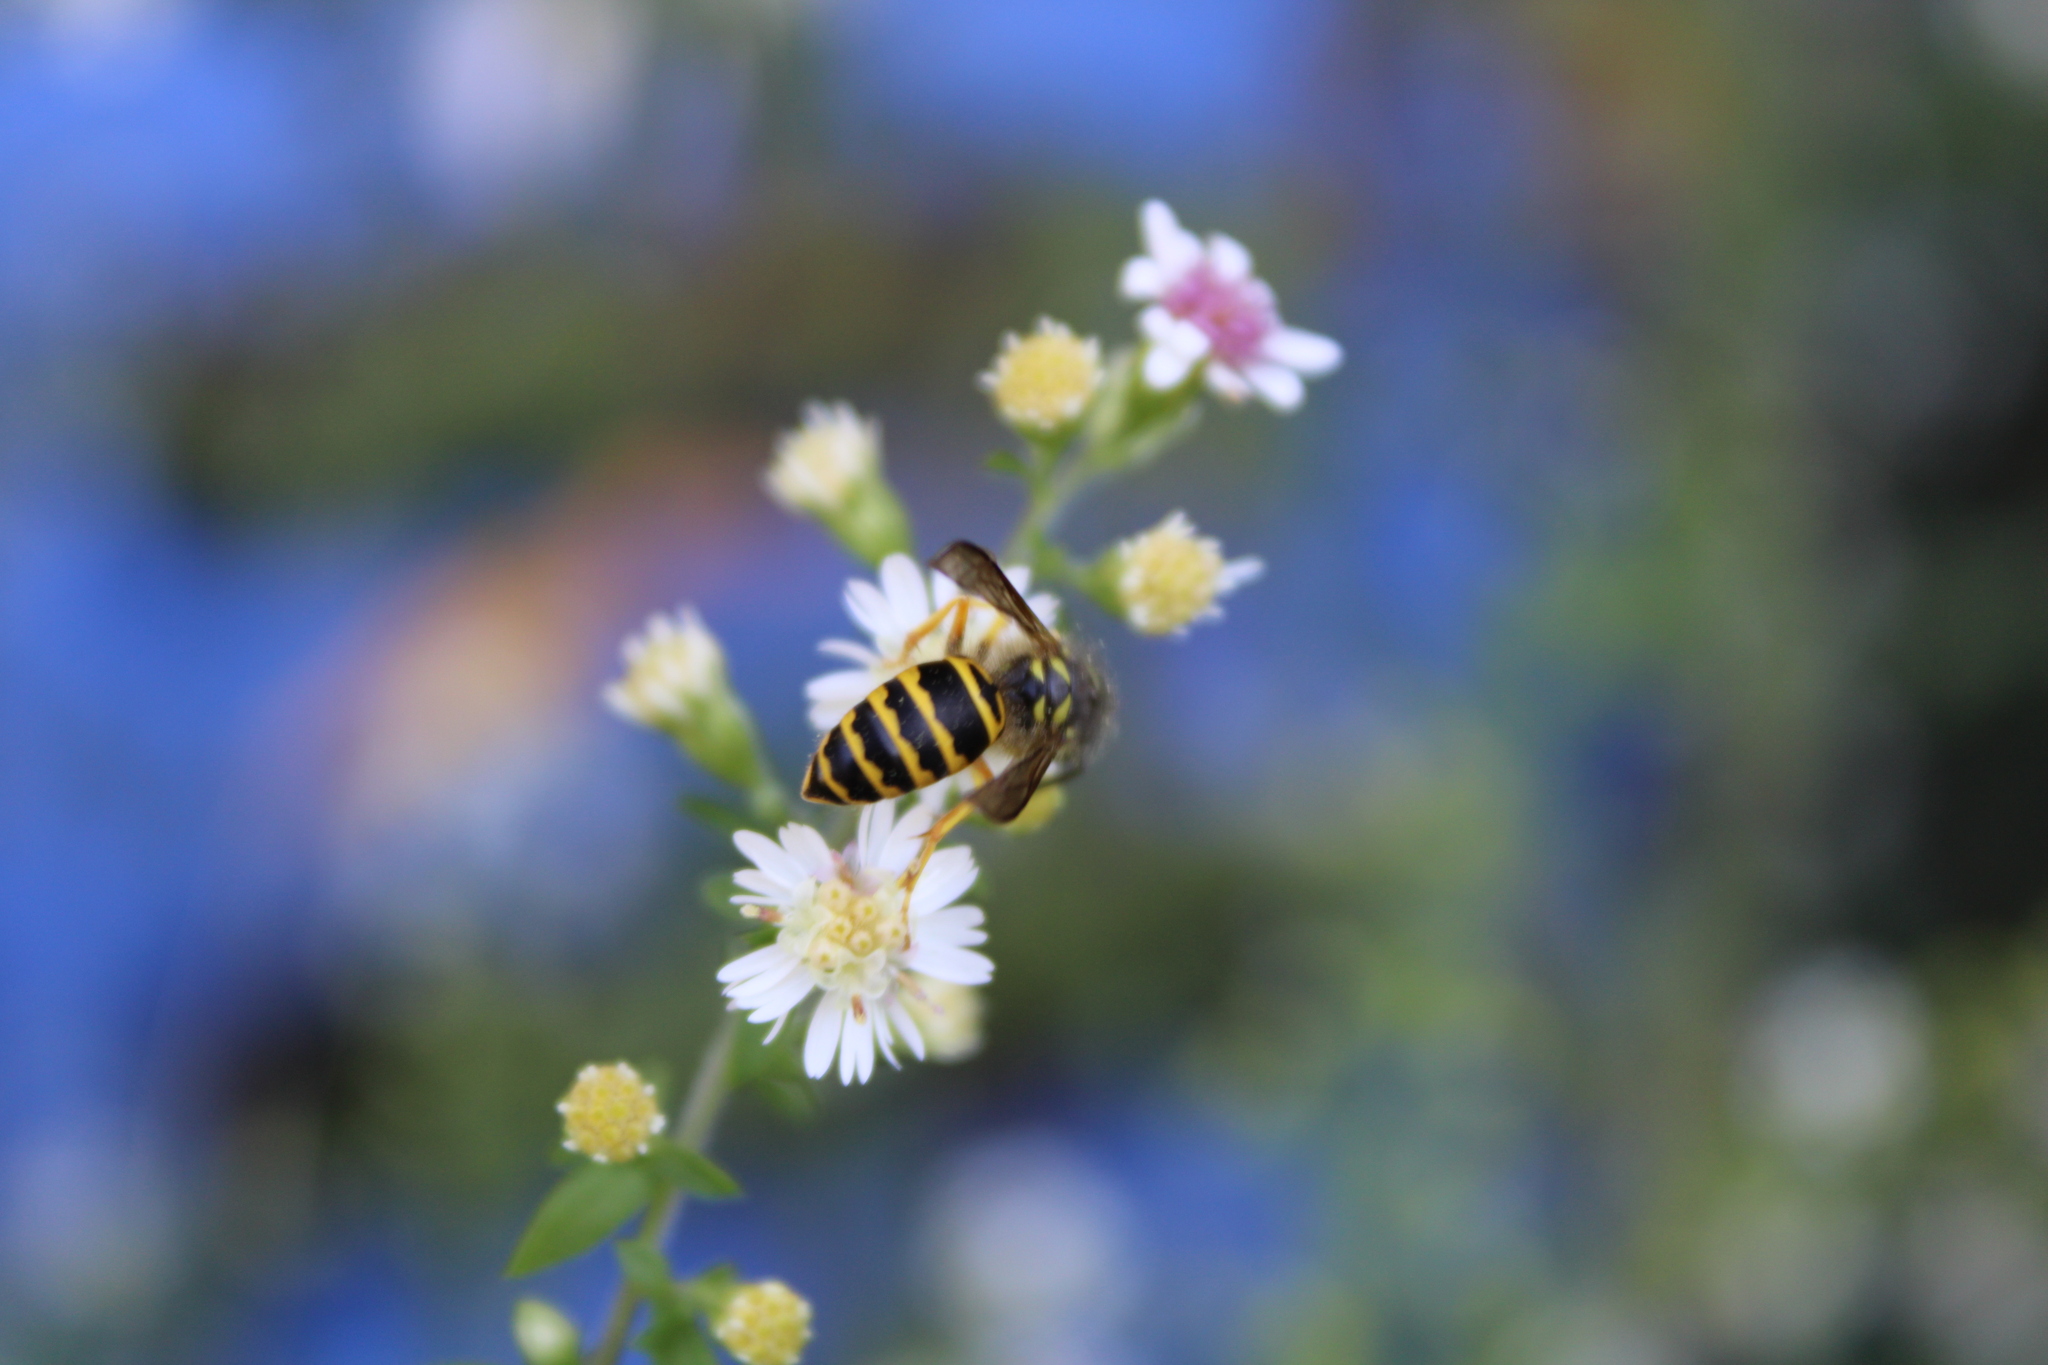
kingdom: Animalia
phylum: Arthropoda
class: Insecta
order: Hymenoptera
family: Vespidae
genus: Vespula
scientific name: Vespula maculifrons
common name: Eastern yellowjacket
